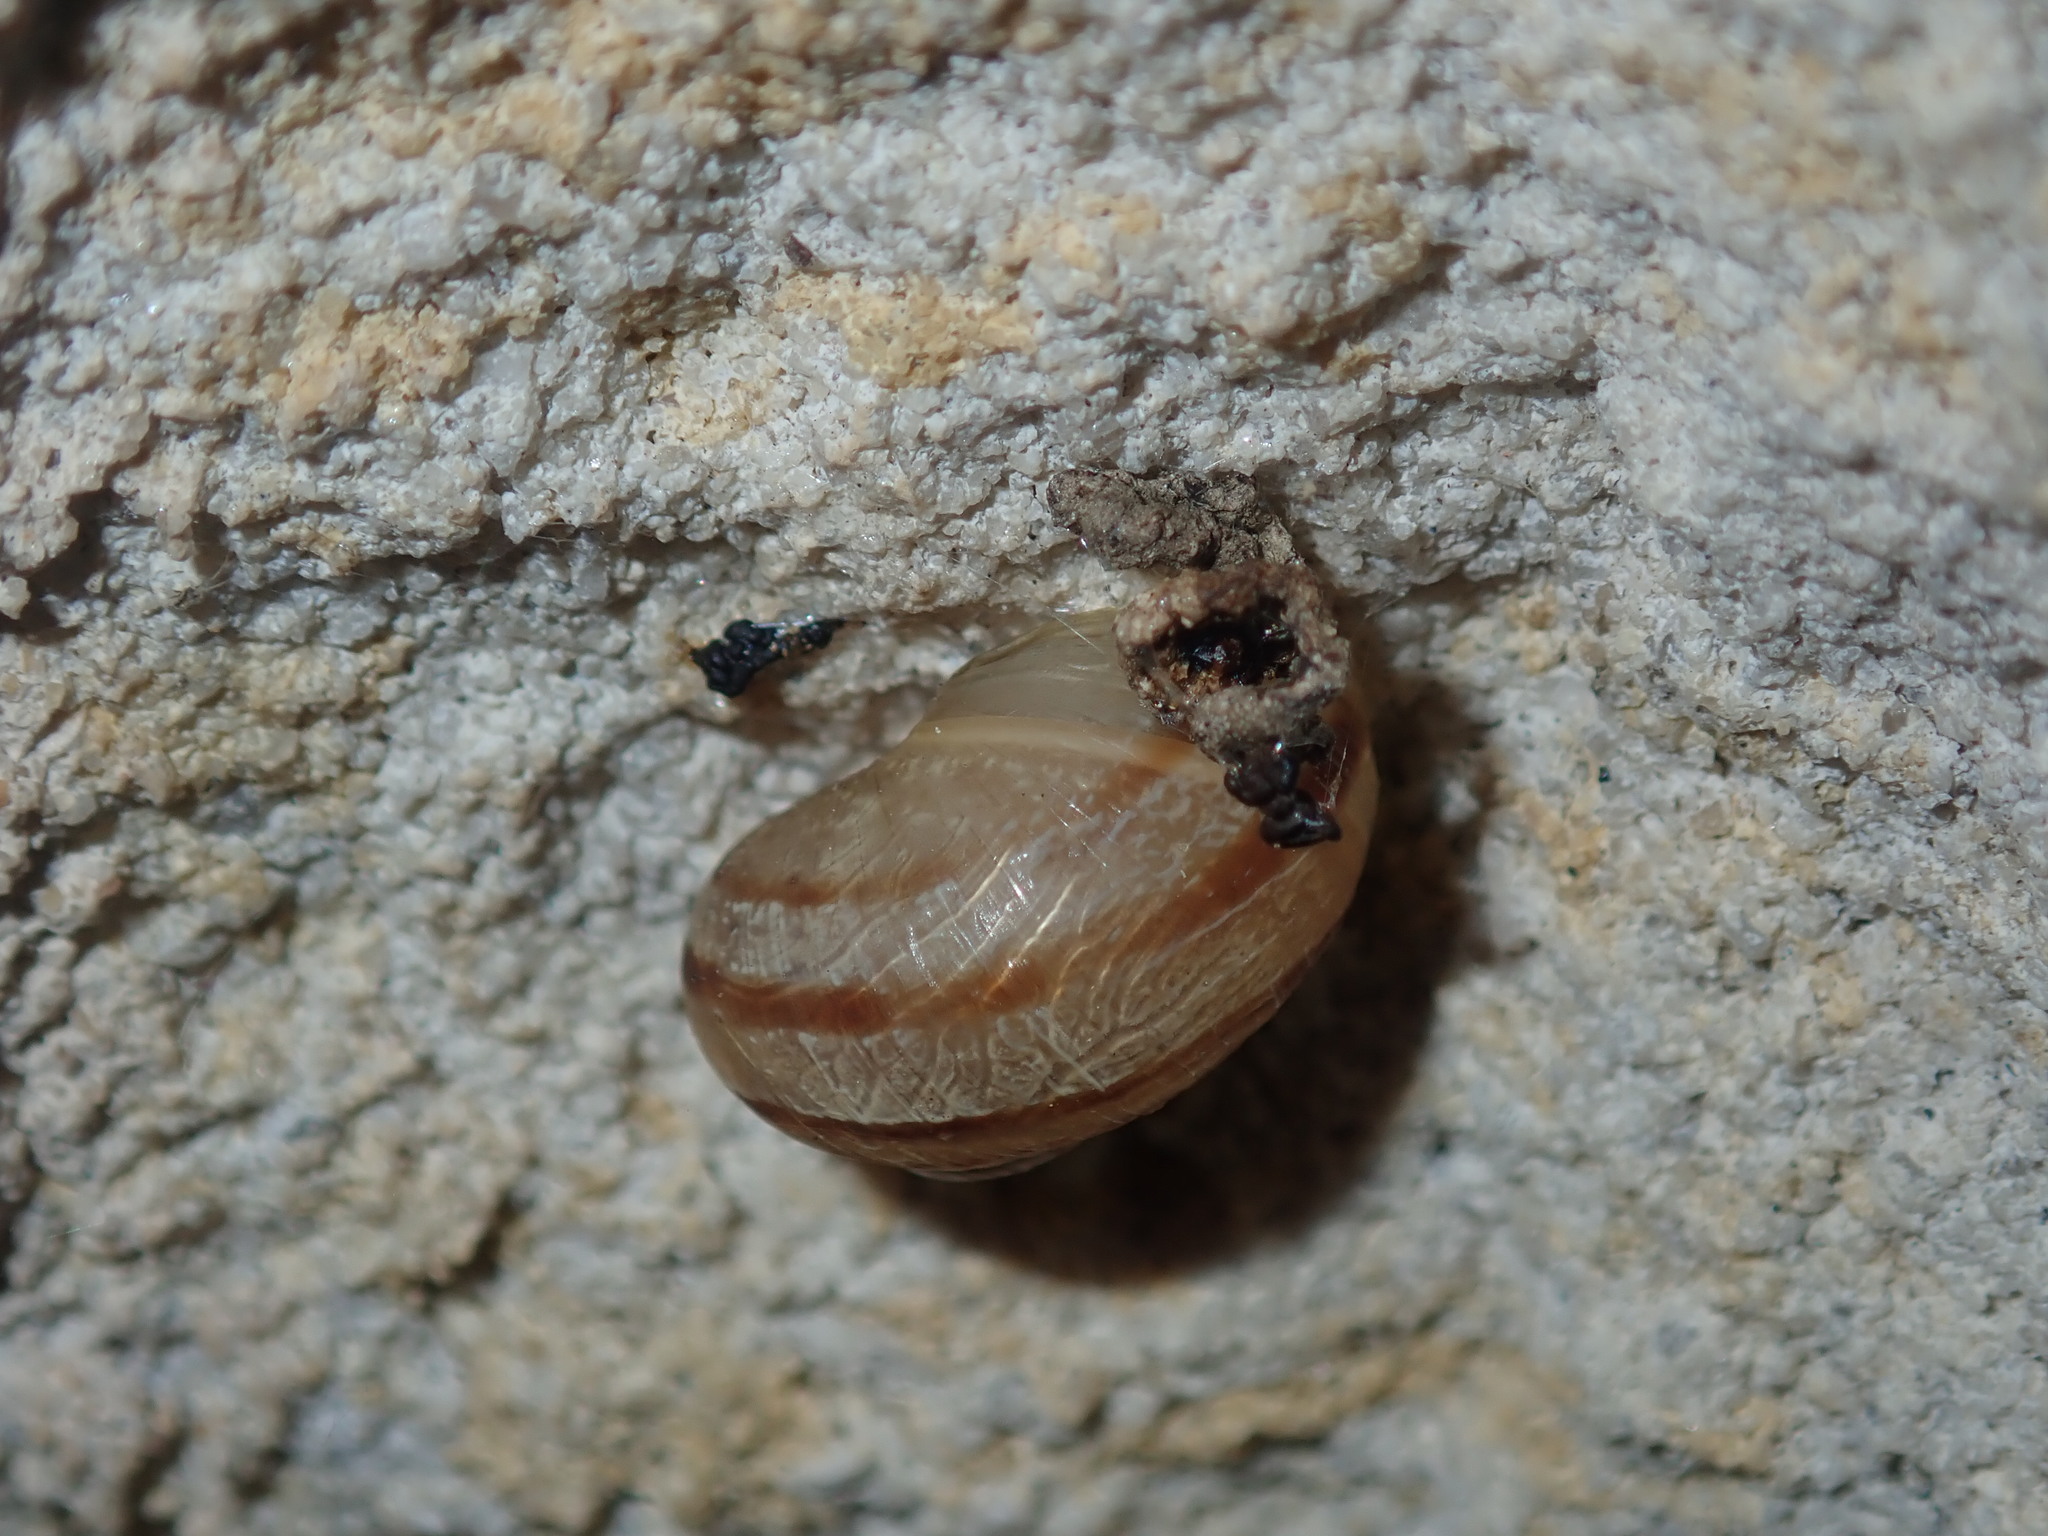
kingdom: Animalia
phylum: Mollusca
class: Gastropoda
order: Stylommatophora
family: Helicidae
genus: Cornu
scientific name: Cornu aspersum
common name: Brown garden snail
